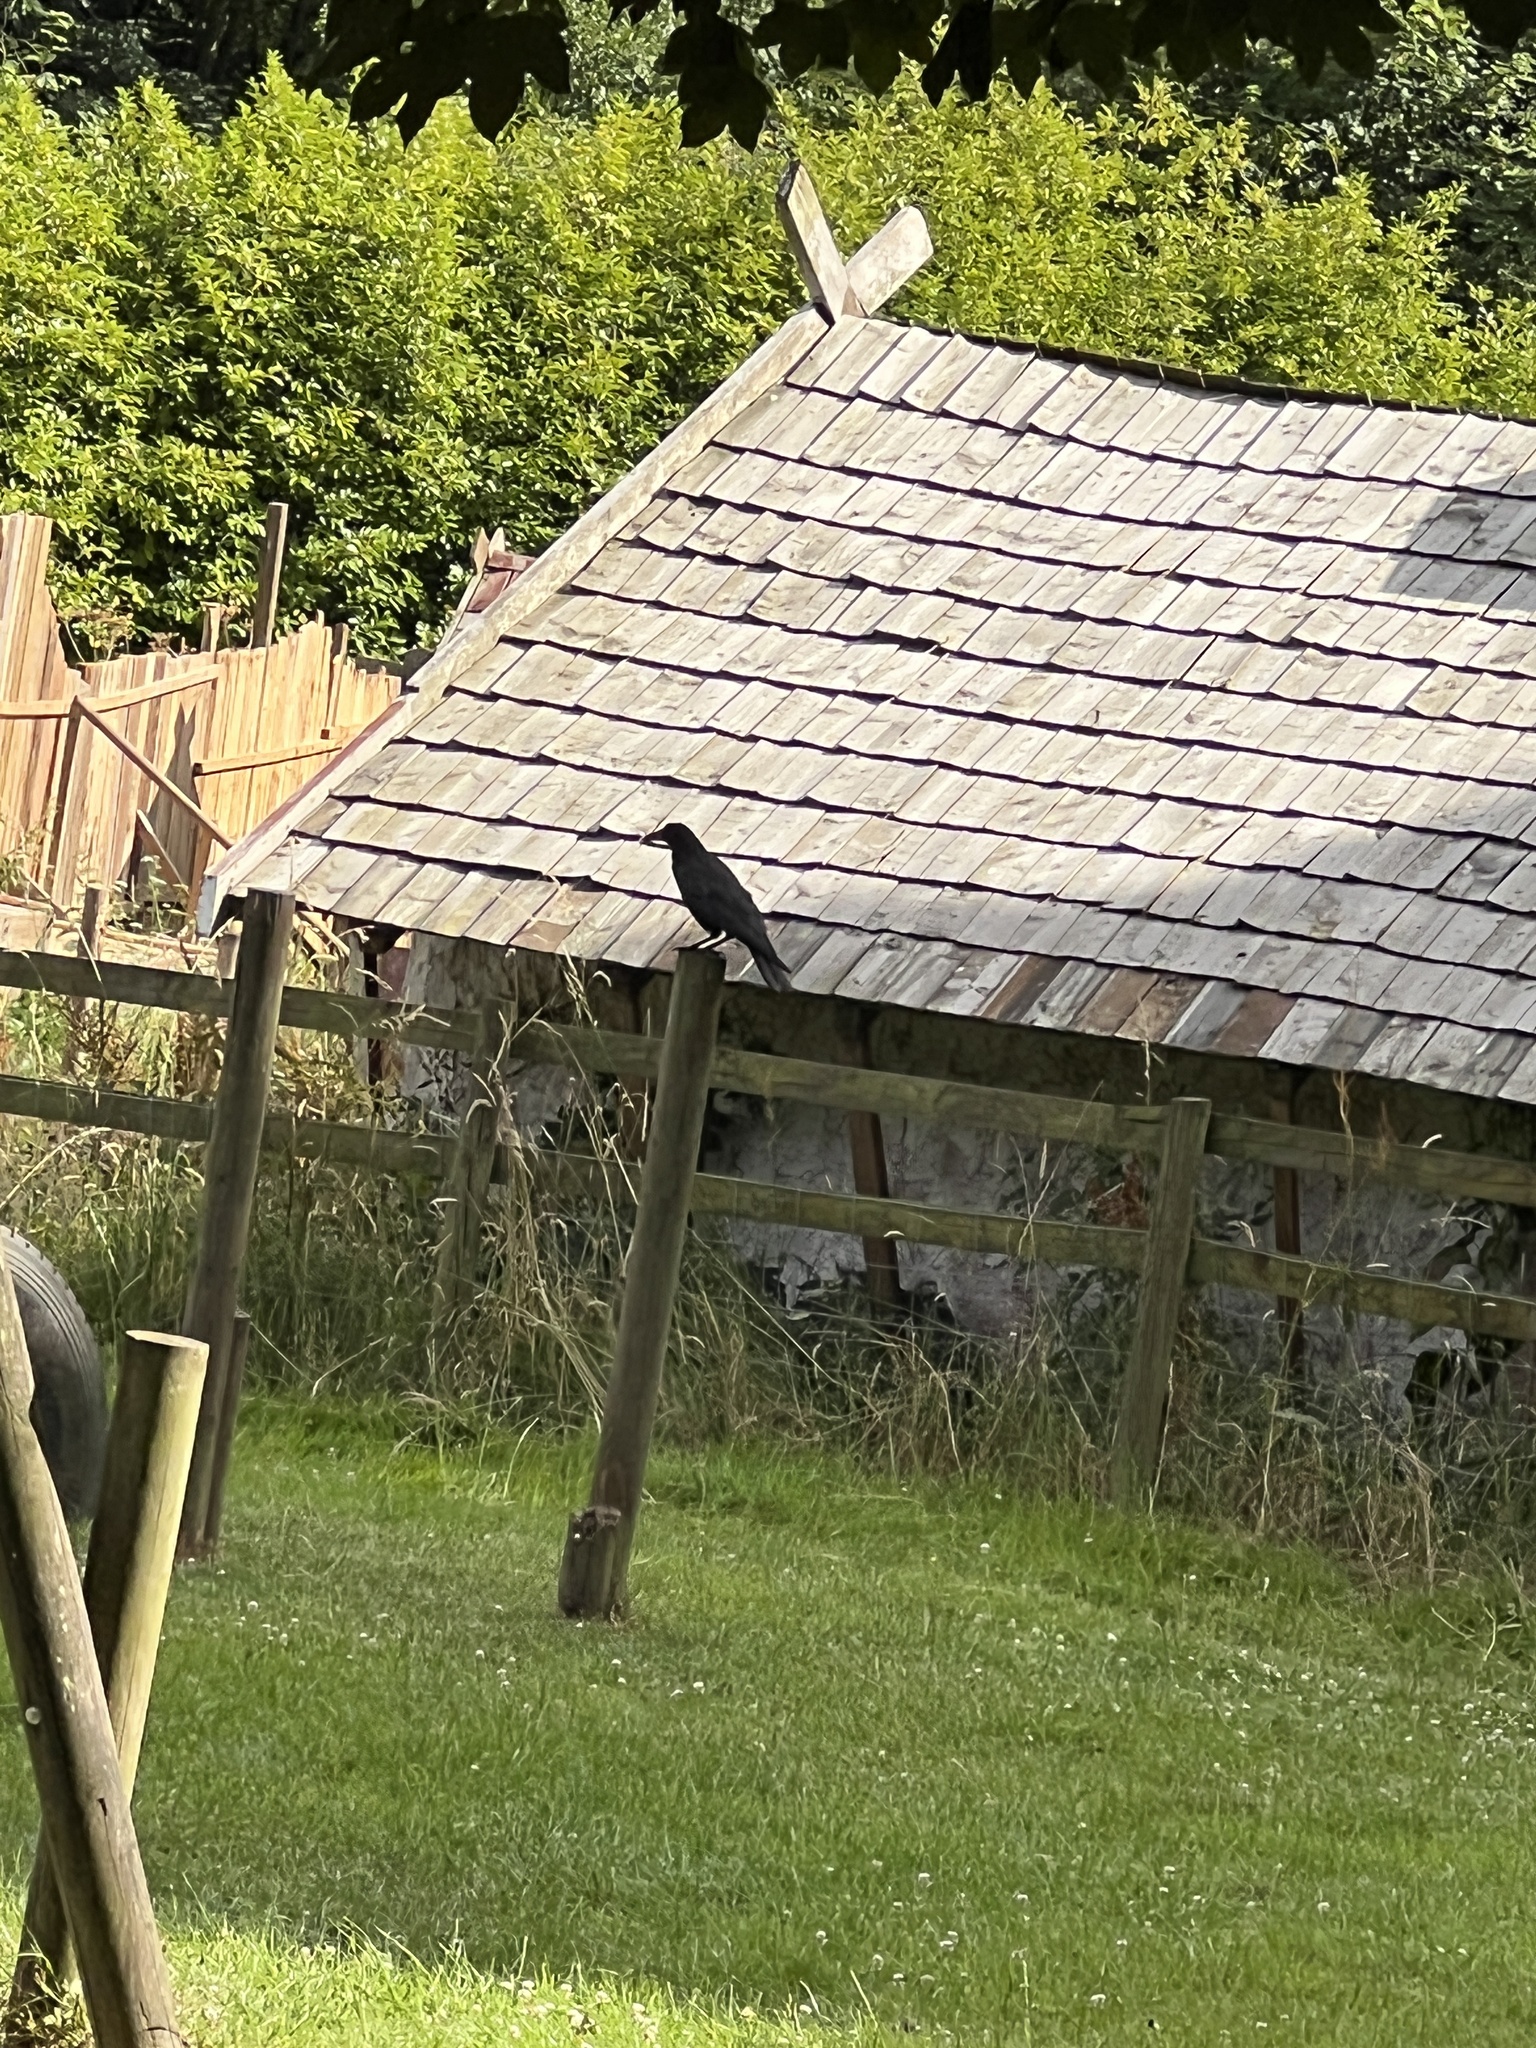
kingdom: Animalia
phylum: Chordata
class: Aves
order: Passeriformes
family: Corvidae
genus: Corvus
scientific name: Corvus corone
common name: Carrion crow
